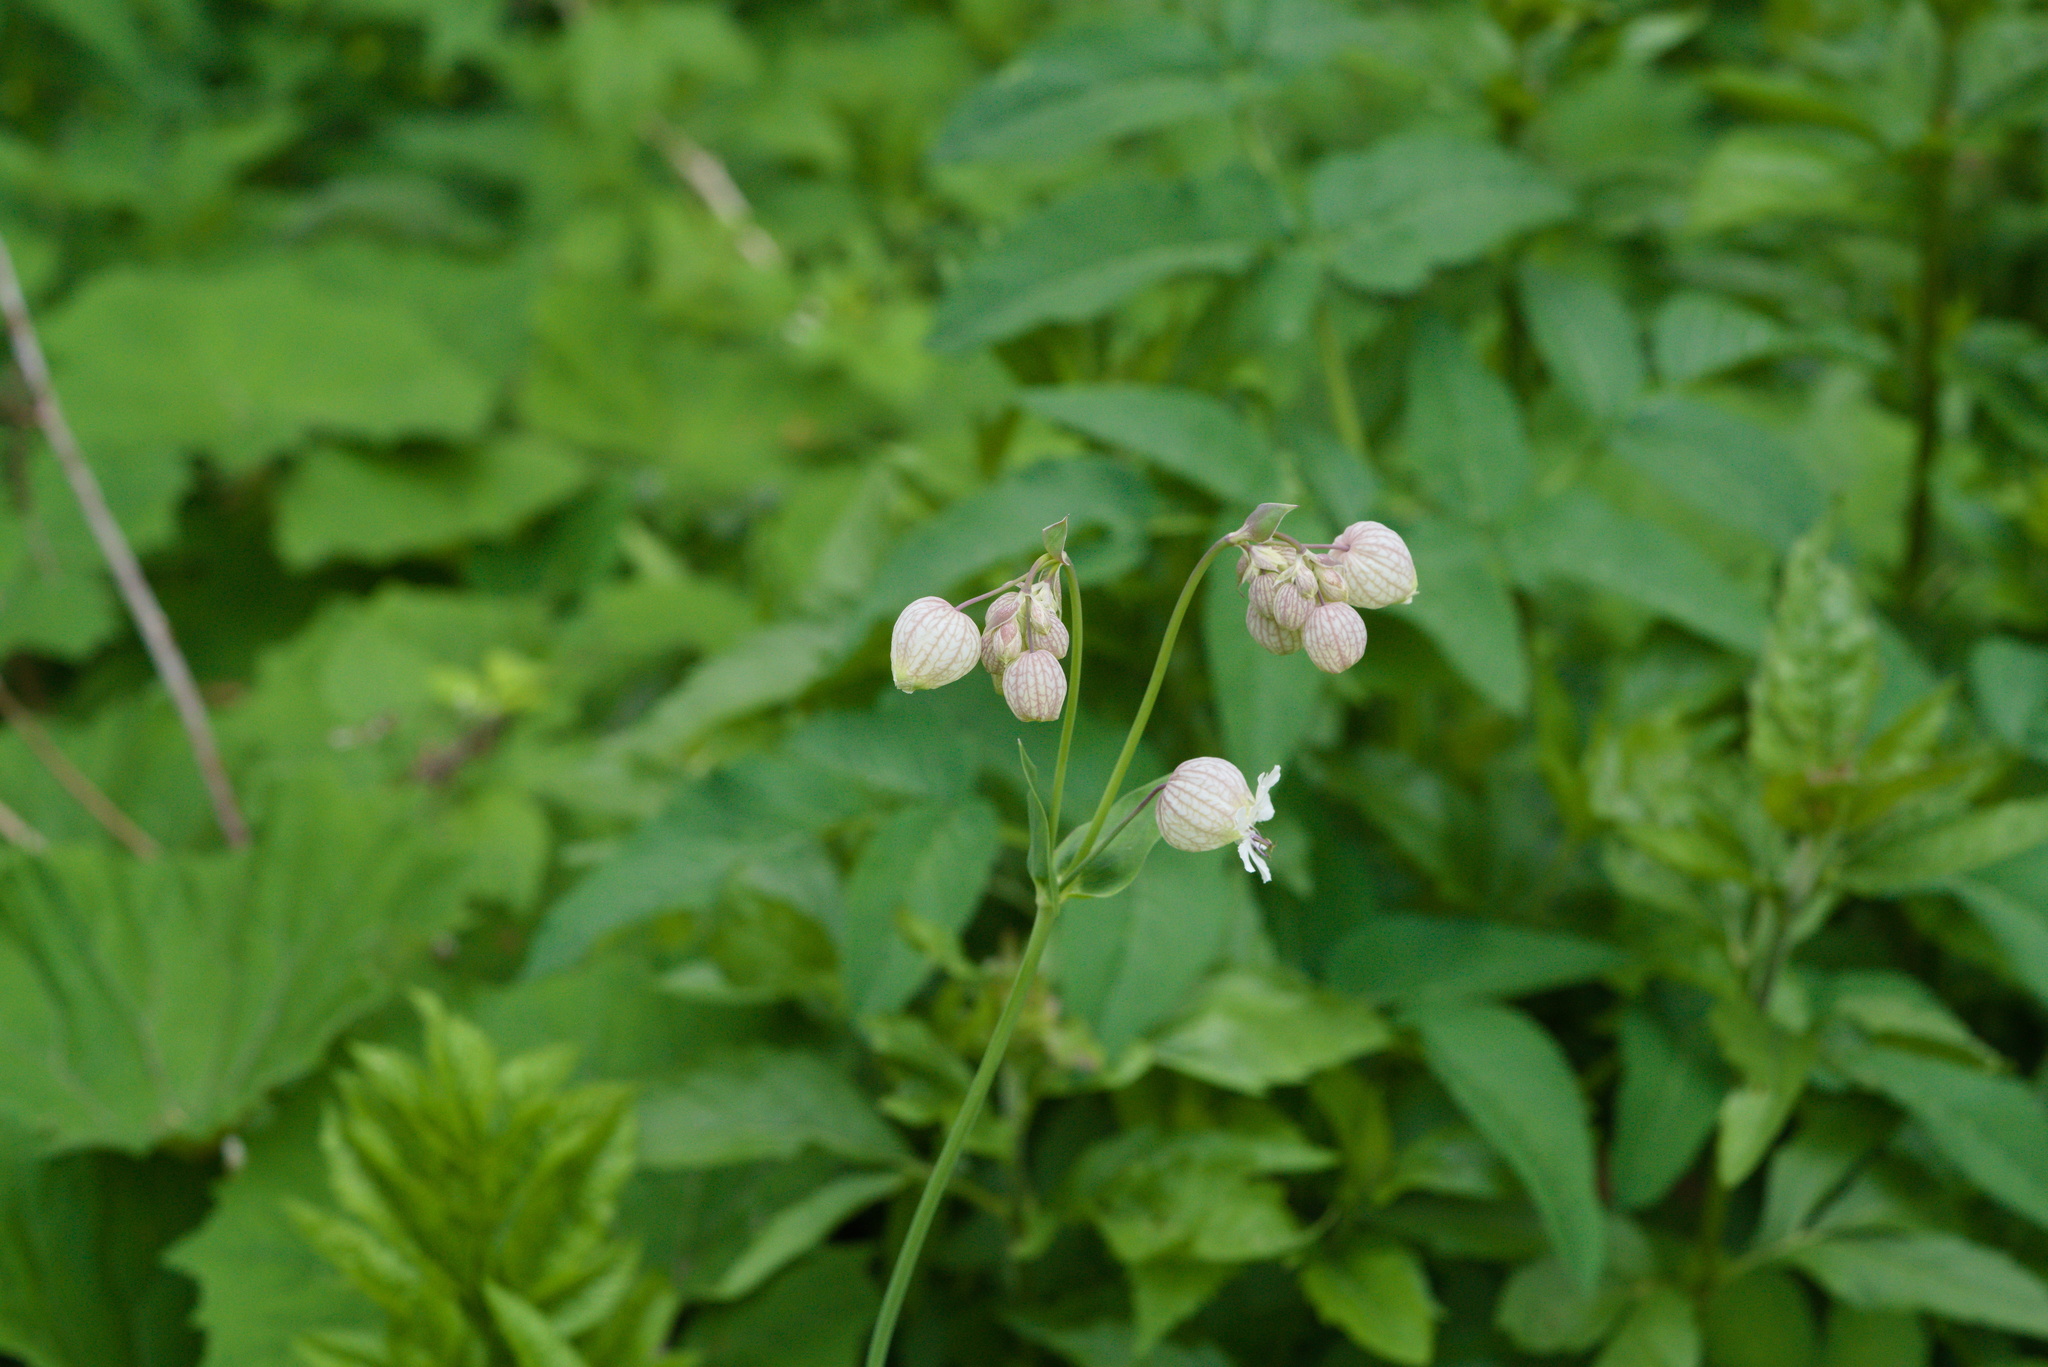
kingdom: Plantae
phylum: Tracheophyta
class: Magnoliopsida
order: Caryophyllales
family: Caryophyllaceae
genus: Silene
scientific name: Silene vulgaris
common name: Bladder campion
